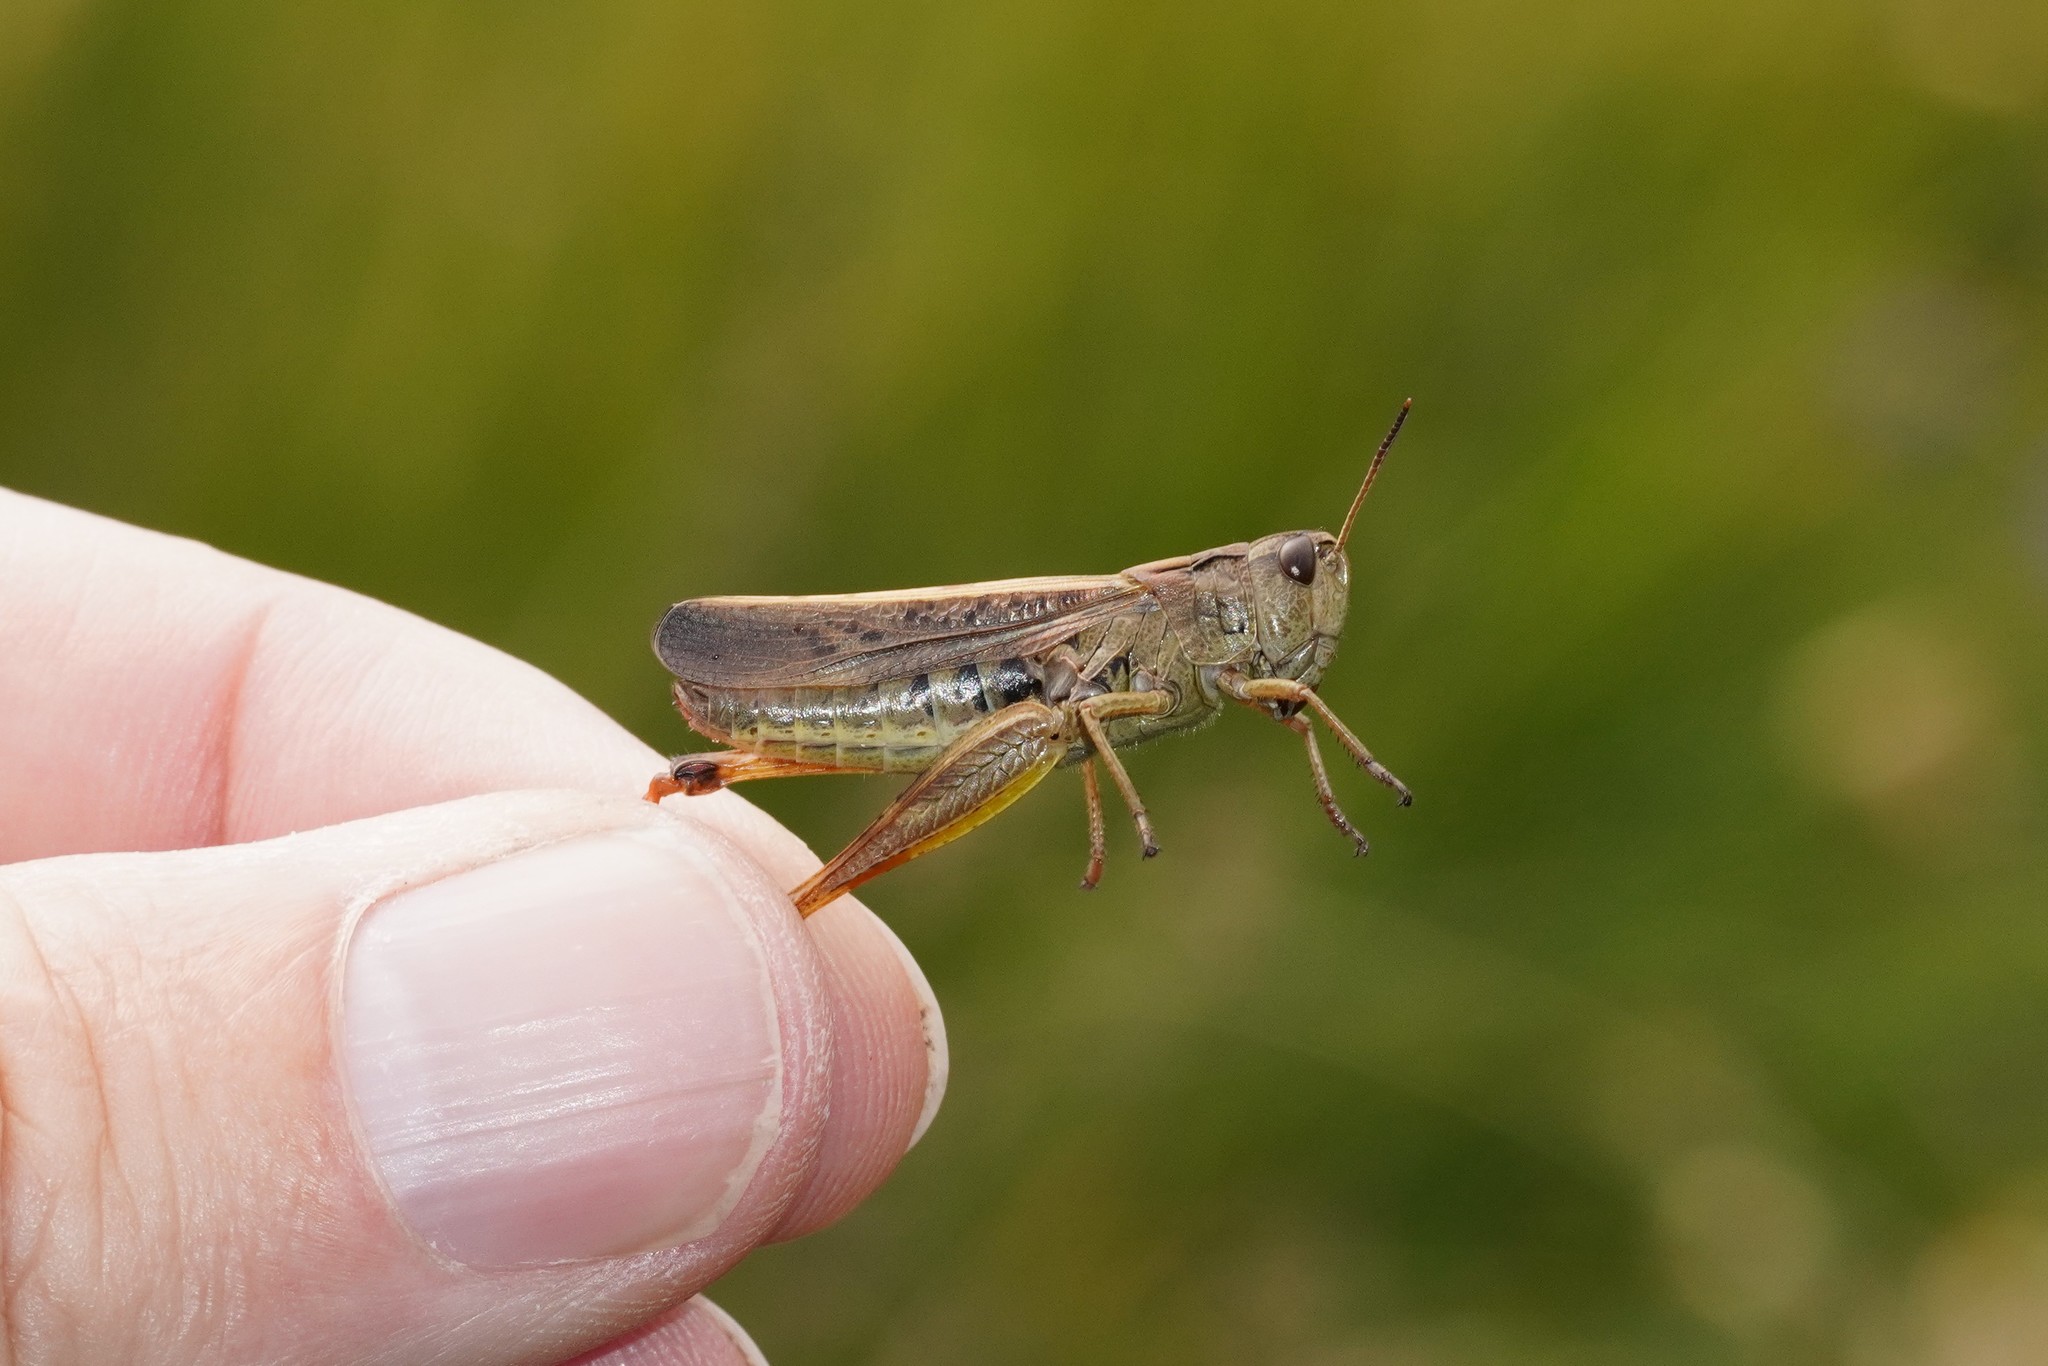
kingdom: Animalia
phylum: Arthropoda
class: Insecta
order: Orthoptera
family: Acrididae
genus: Stauroderus
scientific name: Stauroderus scalaris
